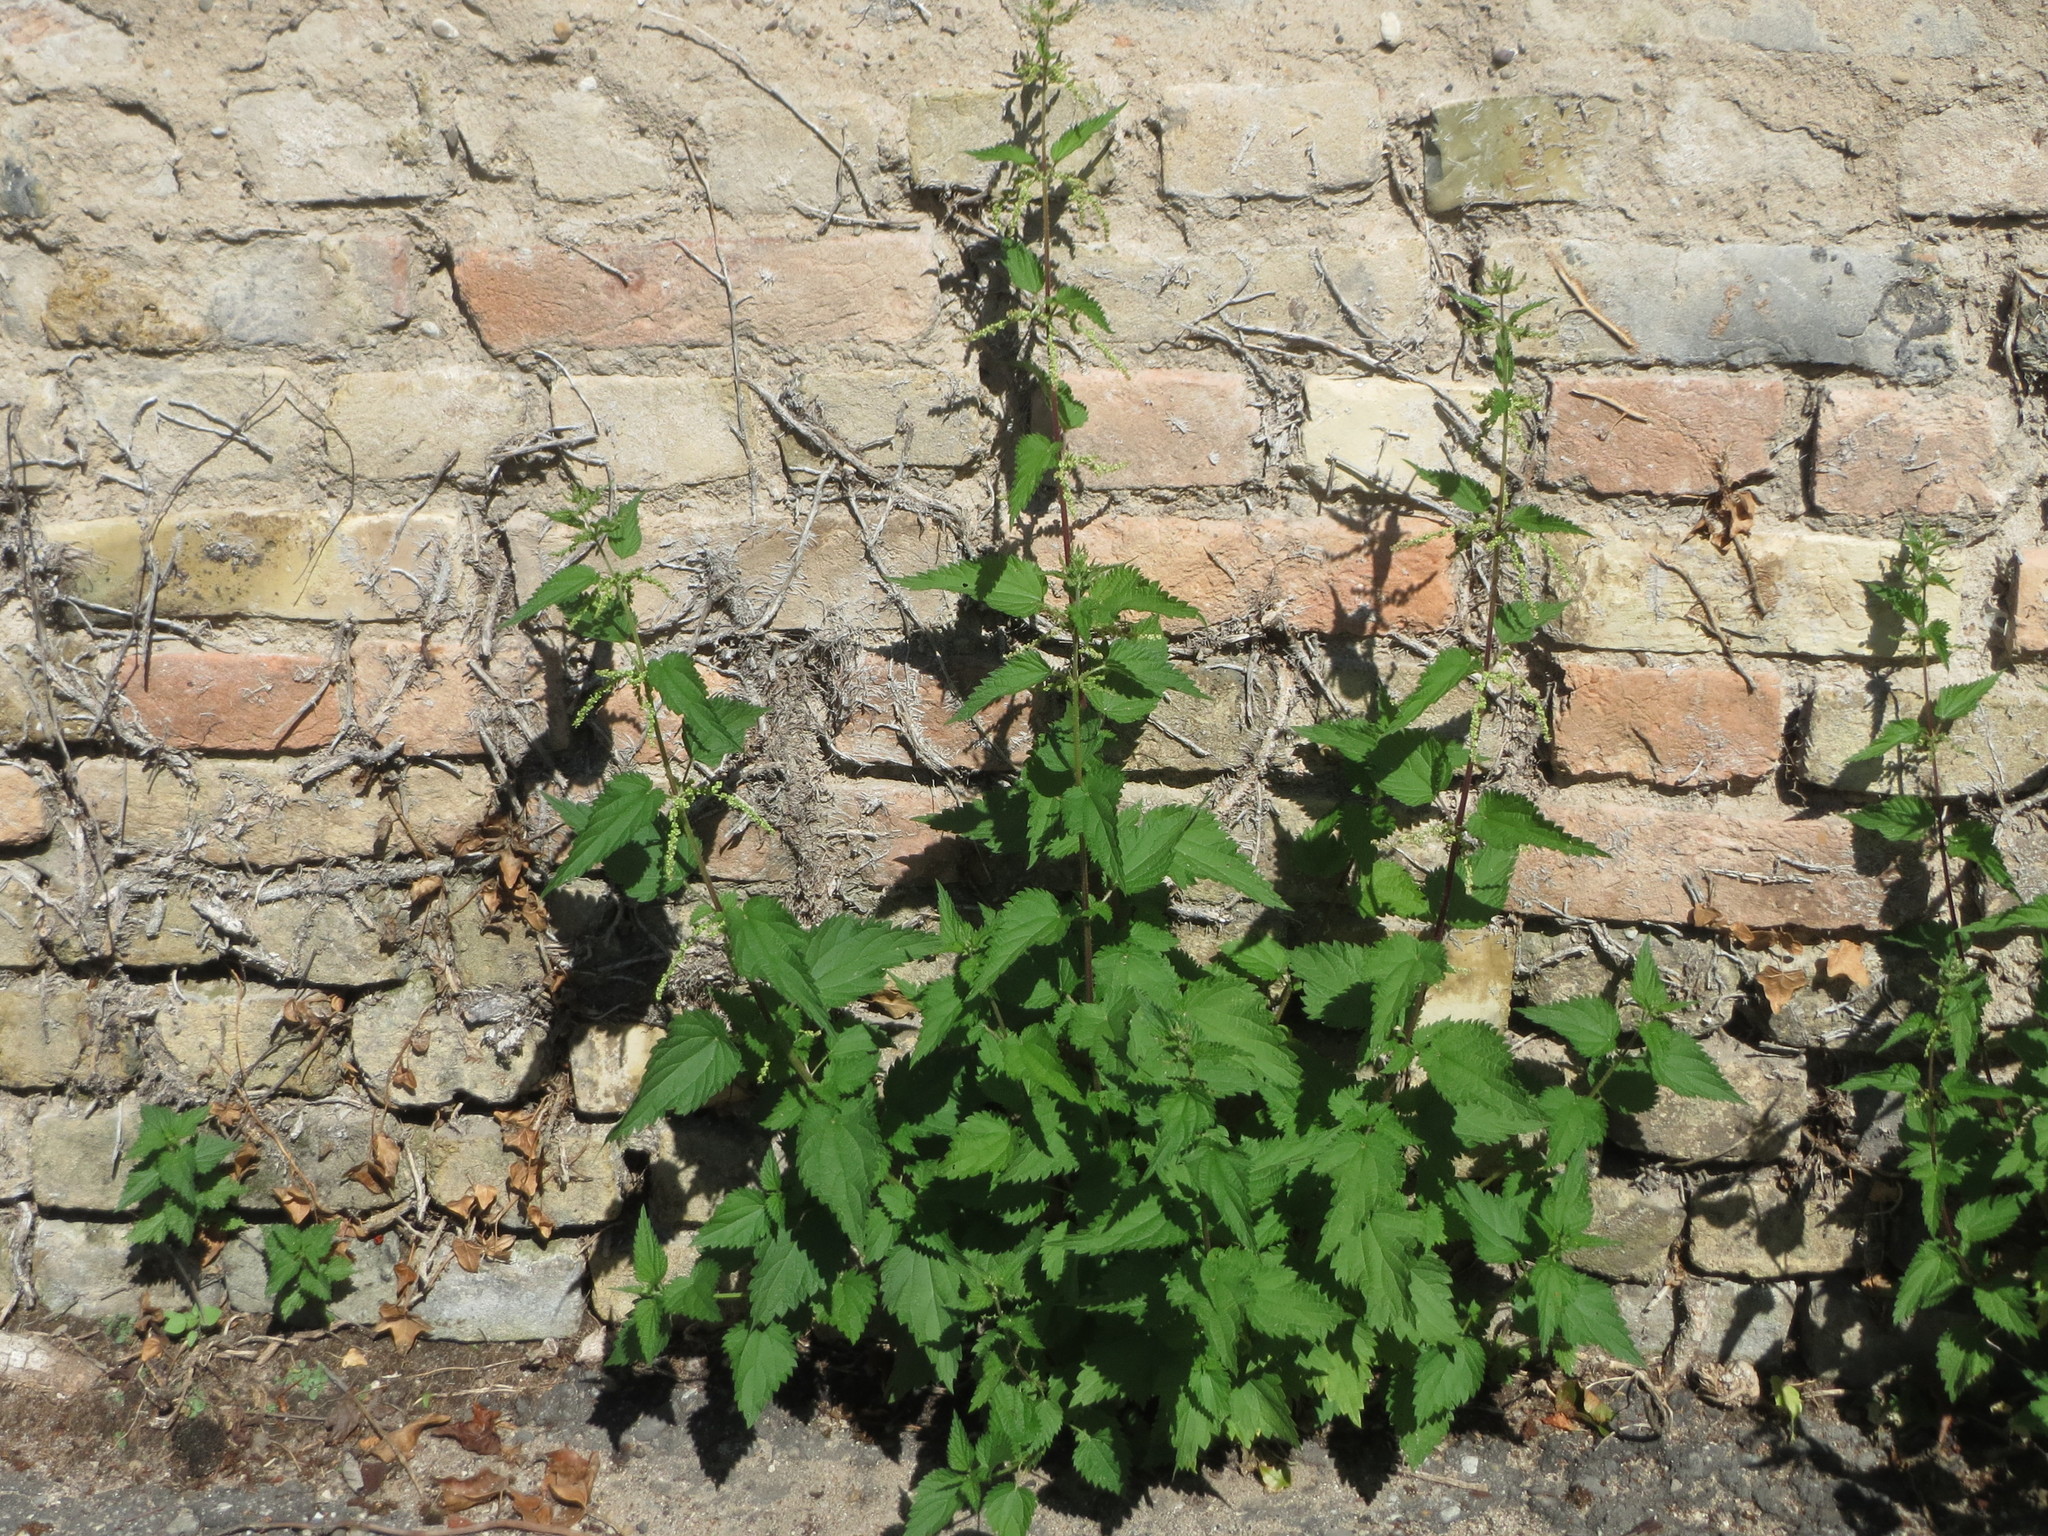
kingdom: Plantae
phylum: Tracheophyta
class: Magnoliopsida
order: Rosales
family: Urticaceae
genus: Urtica
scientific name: Urtica dioica
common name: Common nettle
